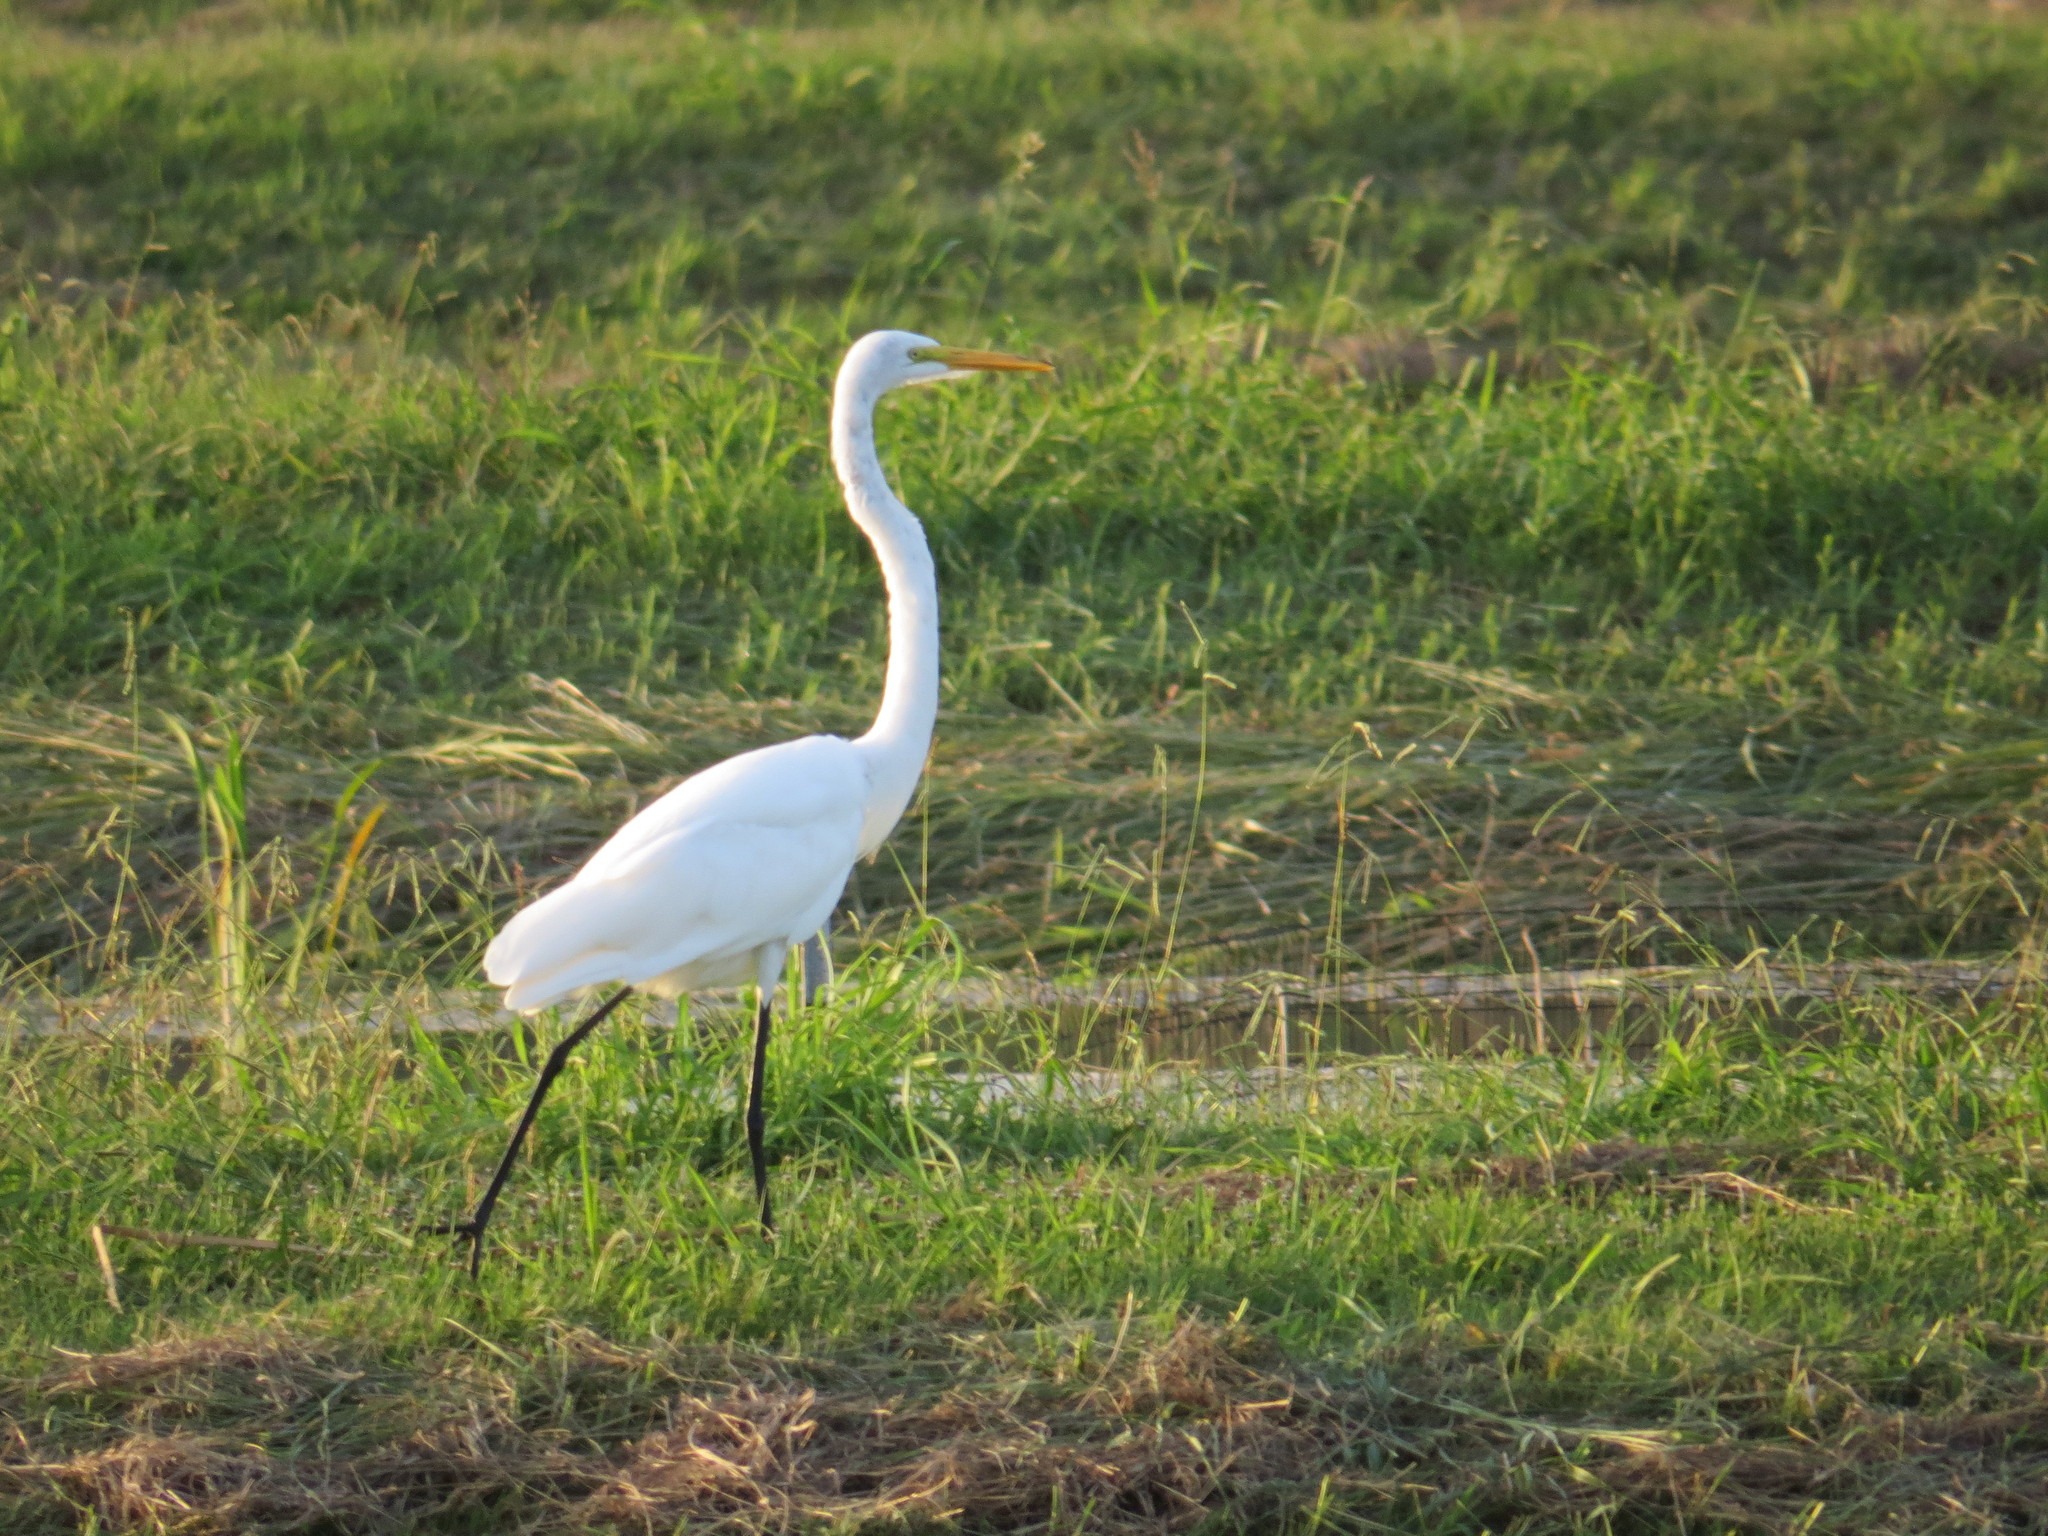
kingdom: Animalia
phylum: Chordata
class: Aves
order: Pelecaniformes
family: Ardeidae
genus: Ardea
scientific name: Ardea alba
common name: Great egret
